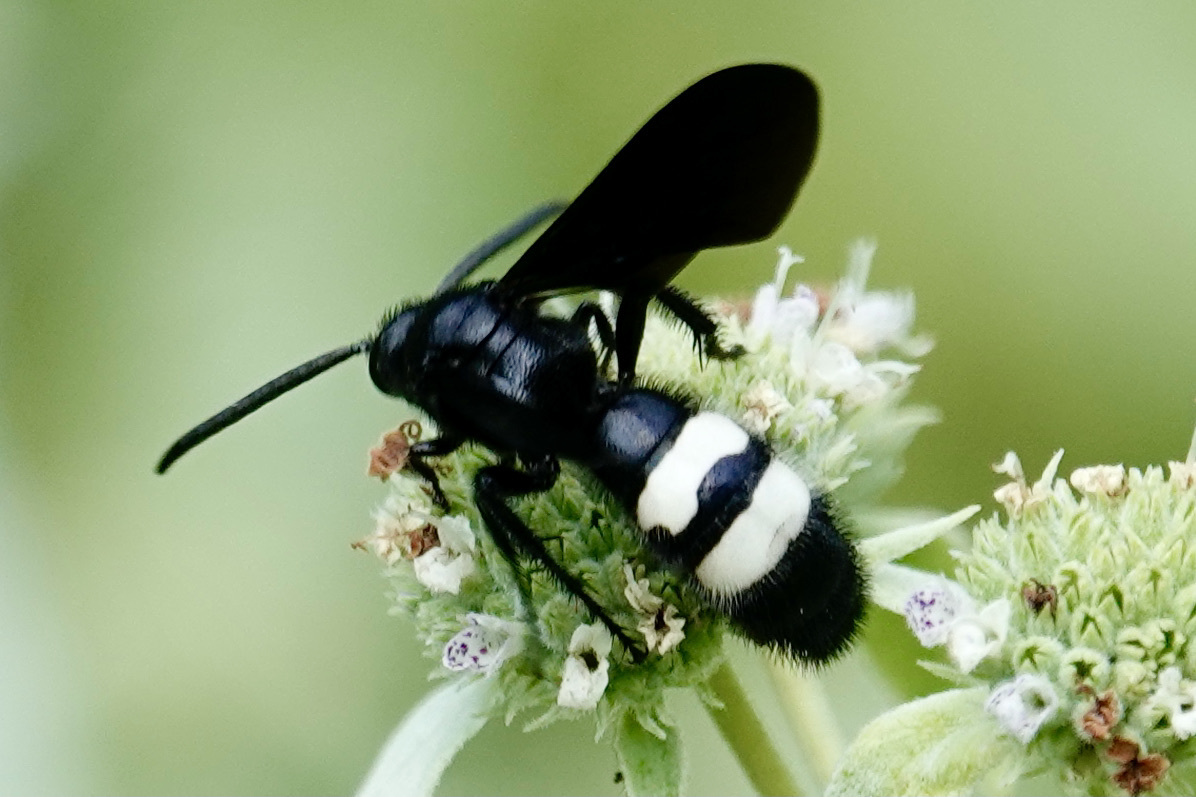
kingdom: Animalia
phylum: Arthropoda
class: Insecta
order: Hymenoptera
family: Scoliidae
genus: Scolia
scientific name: Scolia bicincta
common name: Double-banded scoliid wasp
